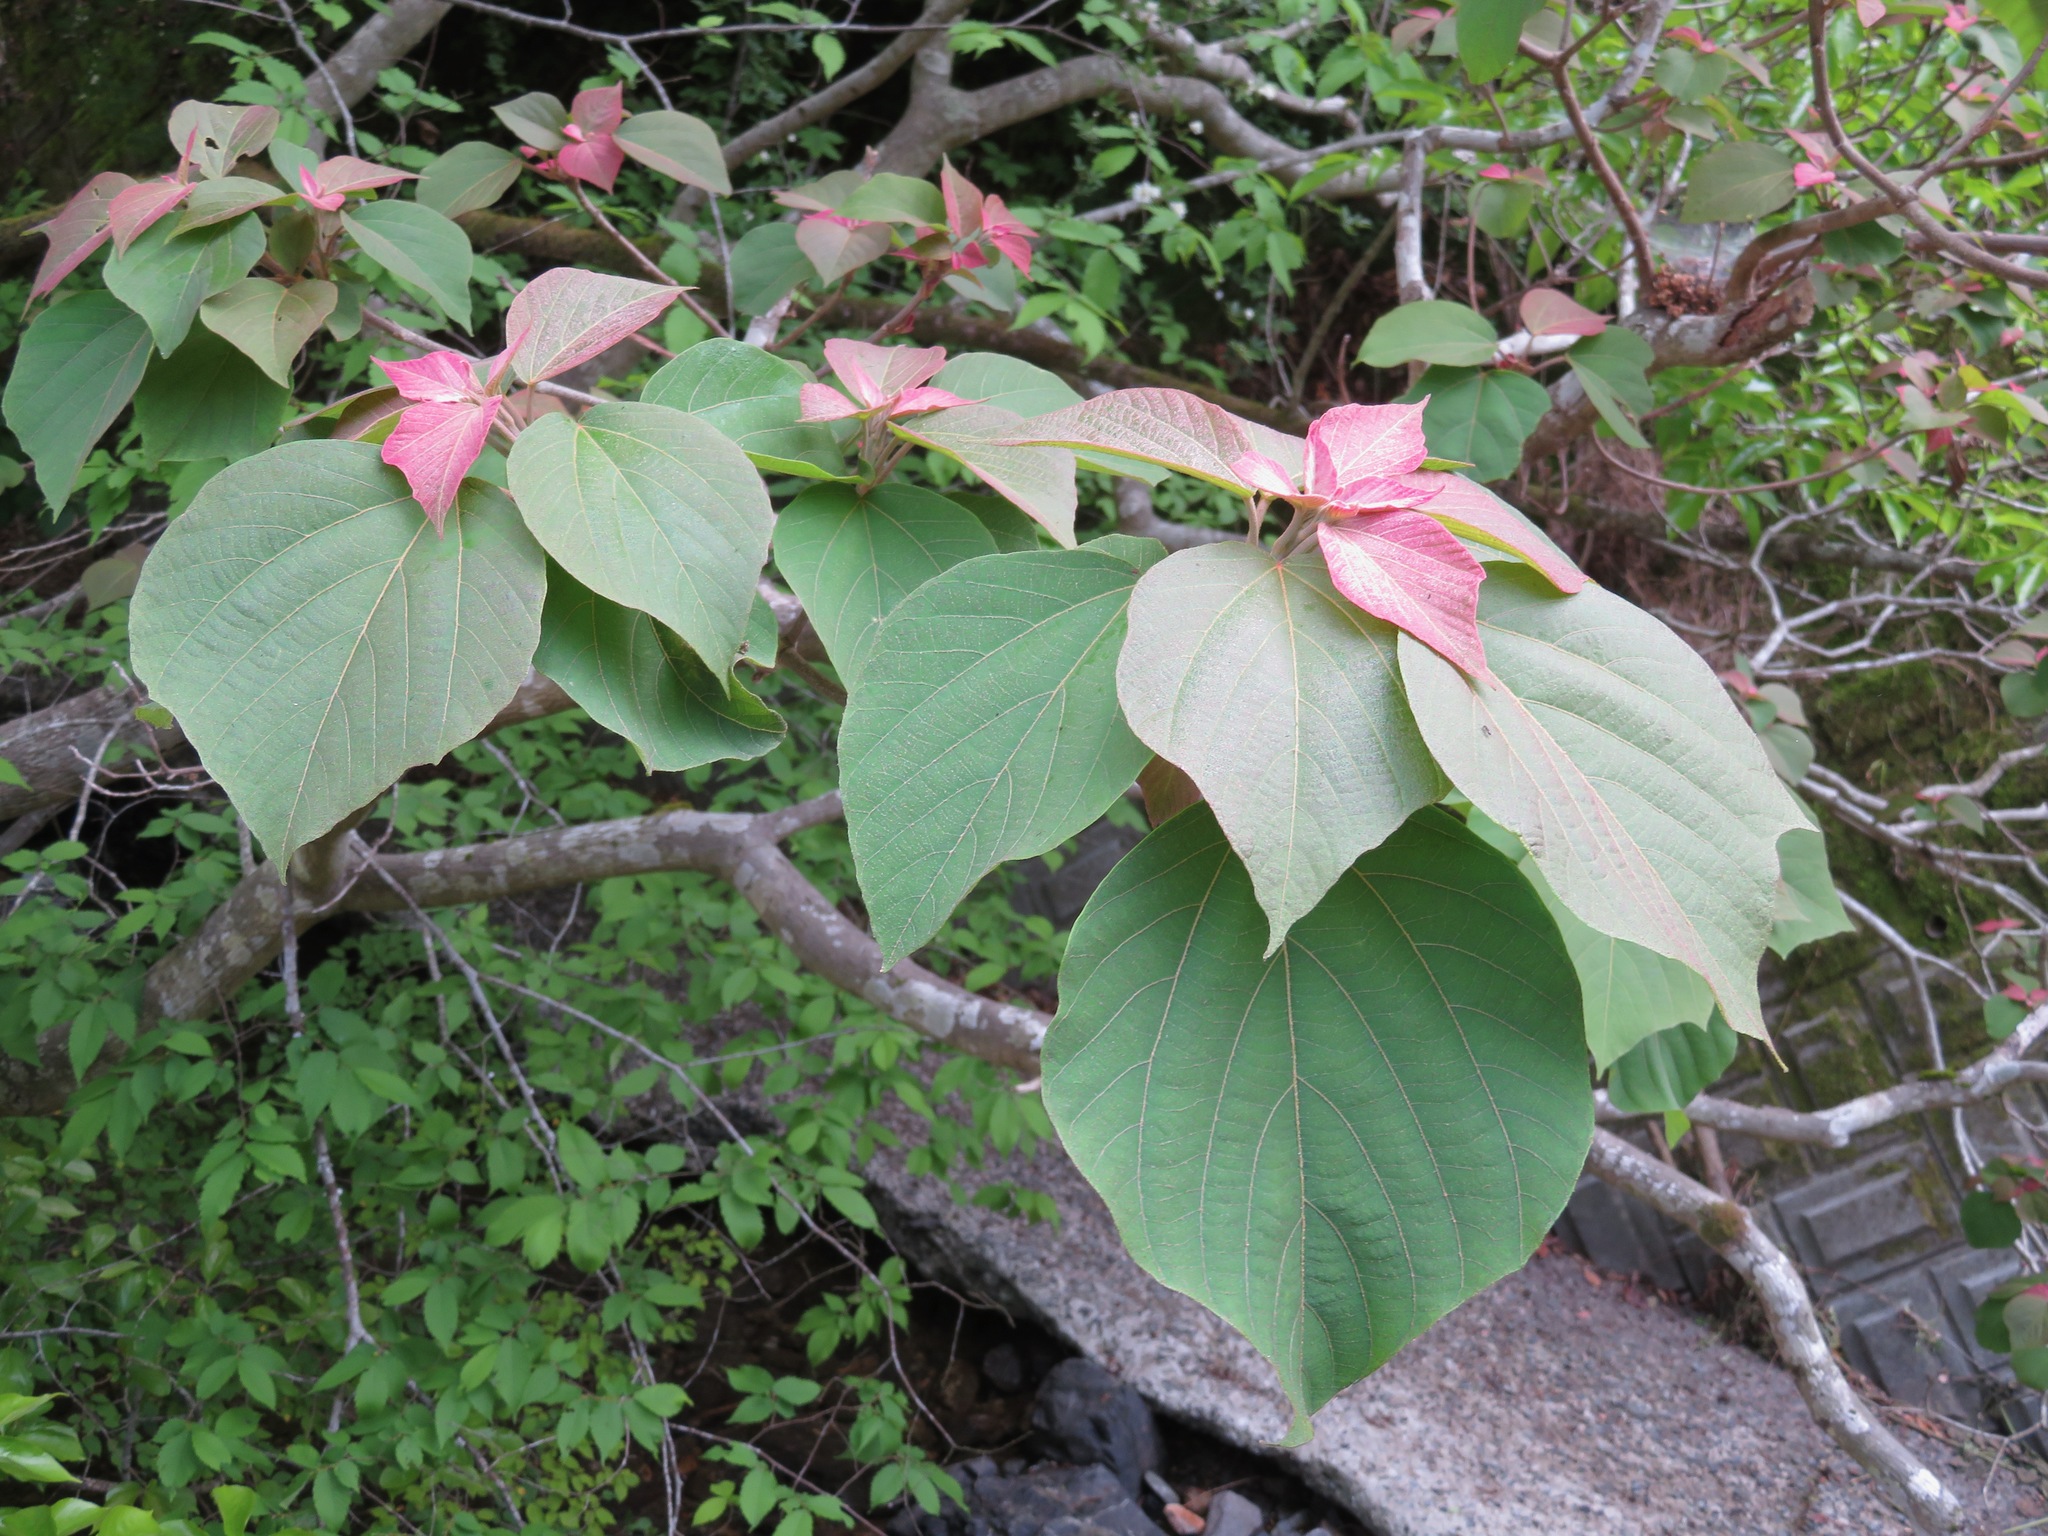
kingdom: Plantae
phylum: Tracheophyta
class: Magnoliopsida
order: Malpighiales
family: Euphorbiaceae
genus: Mallotus
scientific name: Mallotus japonicus
